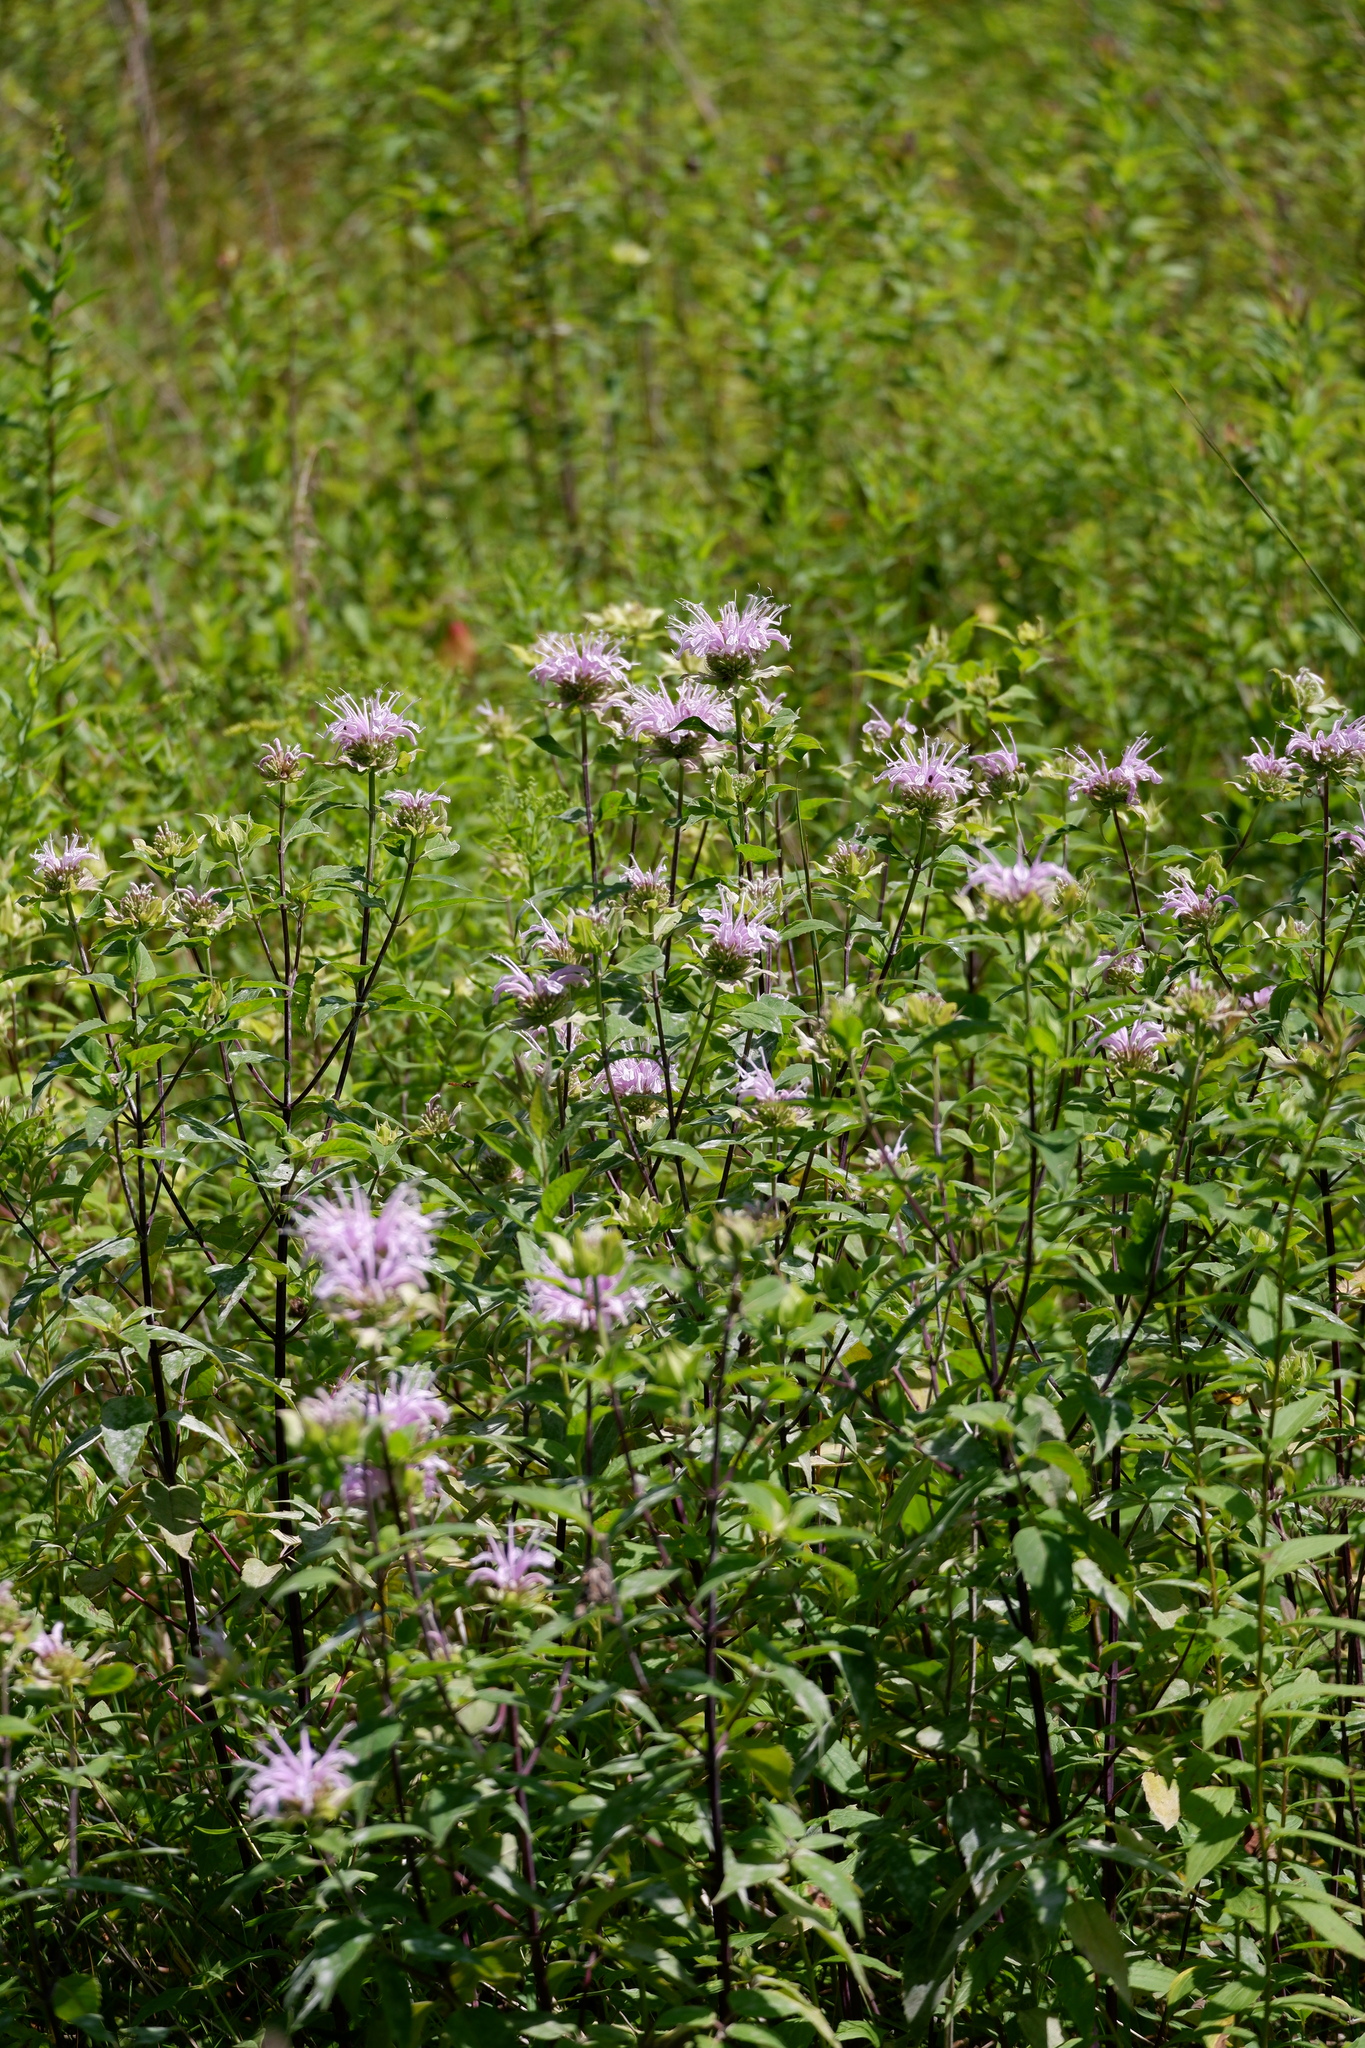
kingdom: Plantae
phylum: Tracheophyta
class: Magnoliopsida
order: Lamiales
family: Lamiaceae
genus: Monarda
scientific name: Monarda fistulosa
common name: Purple beebalm
